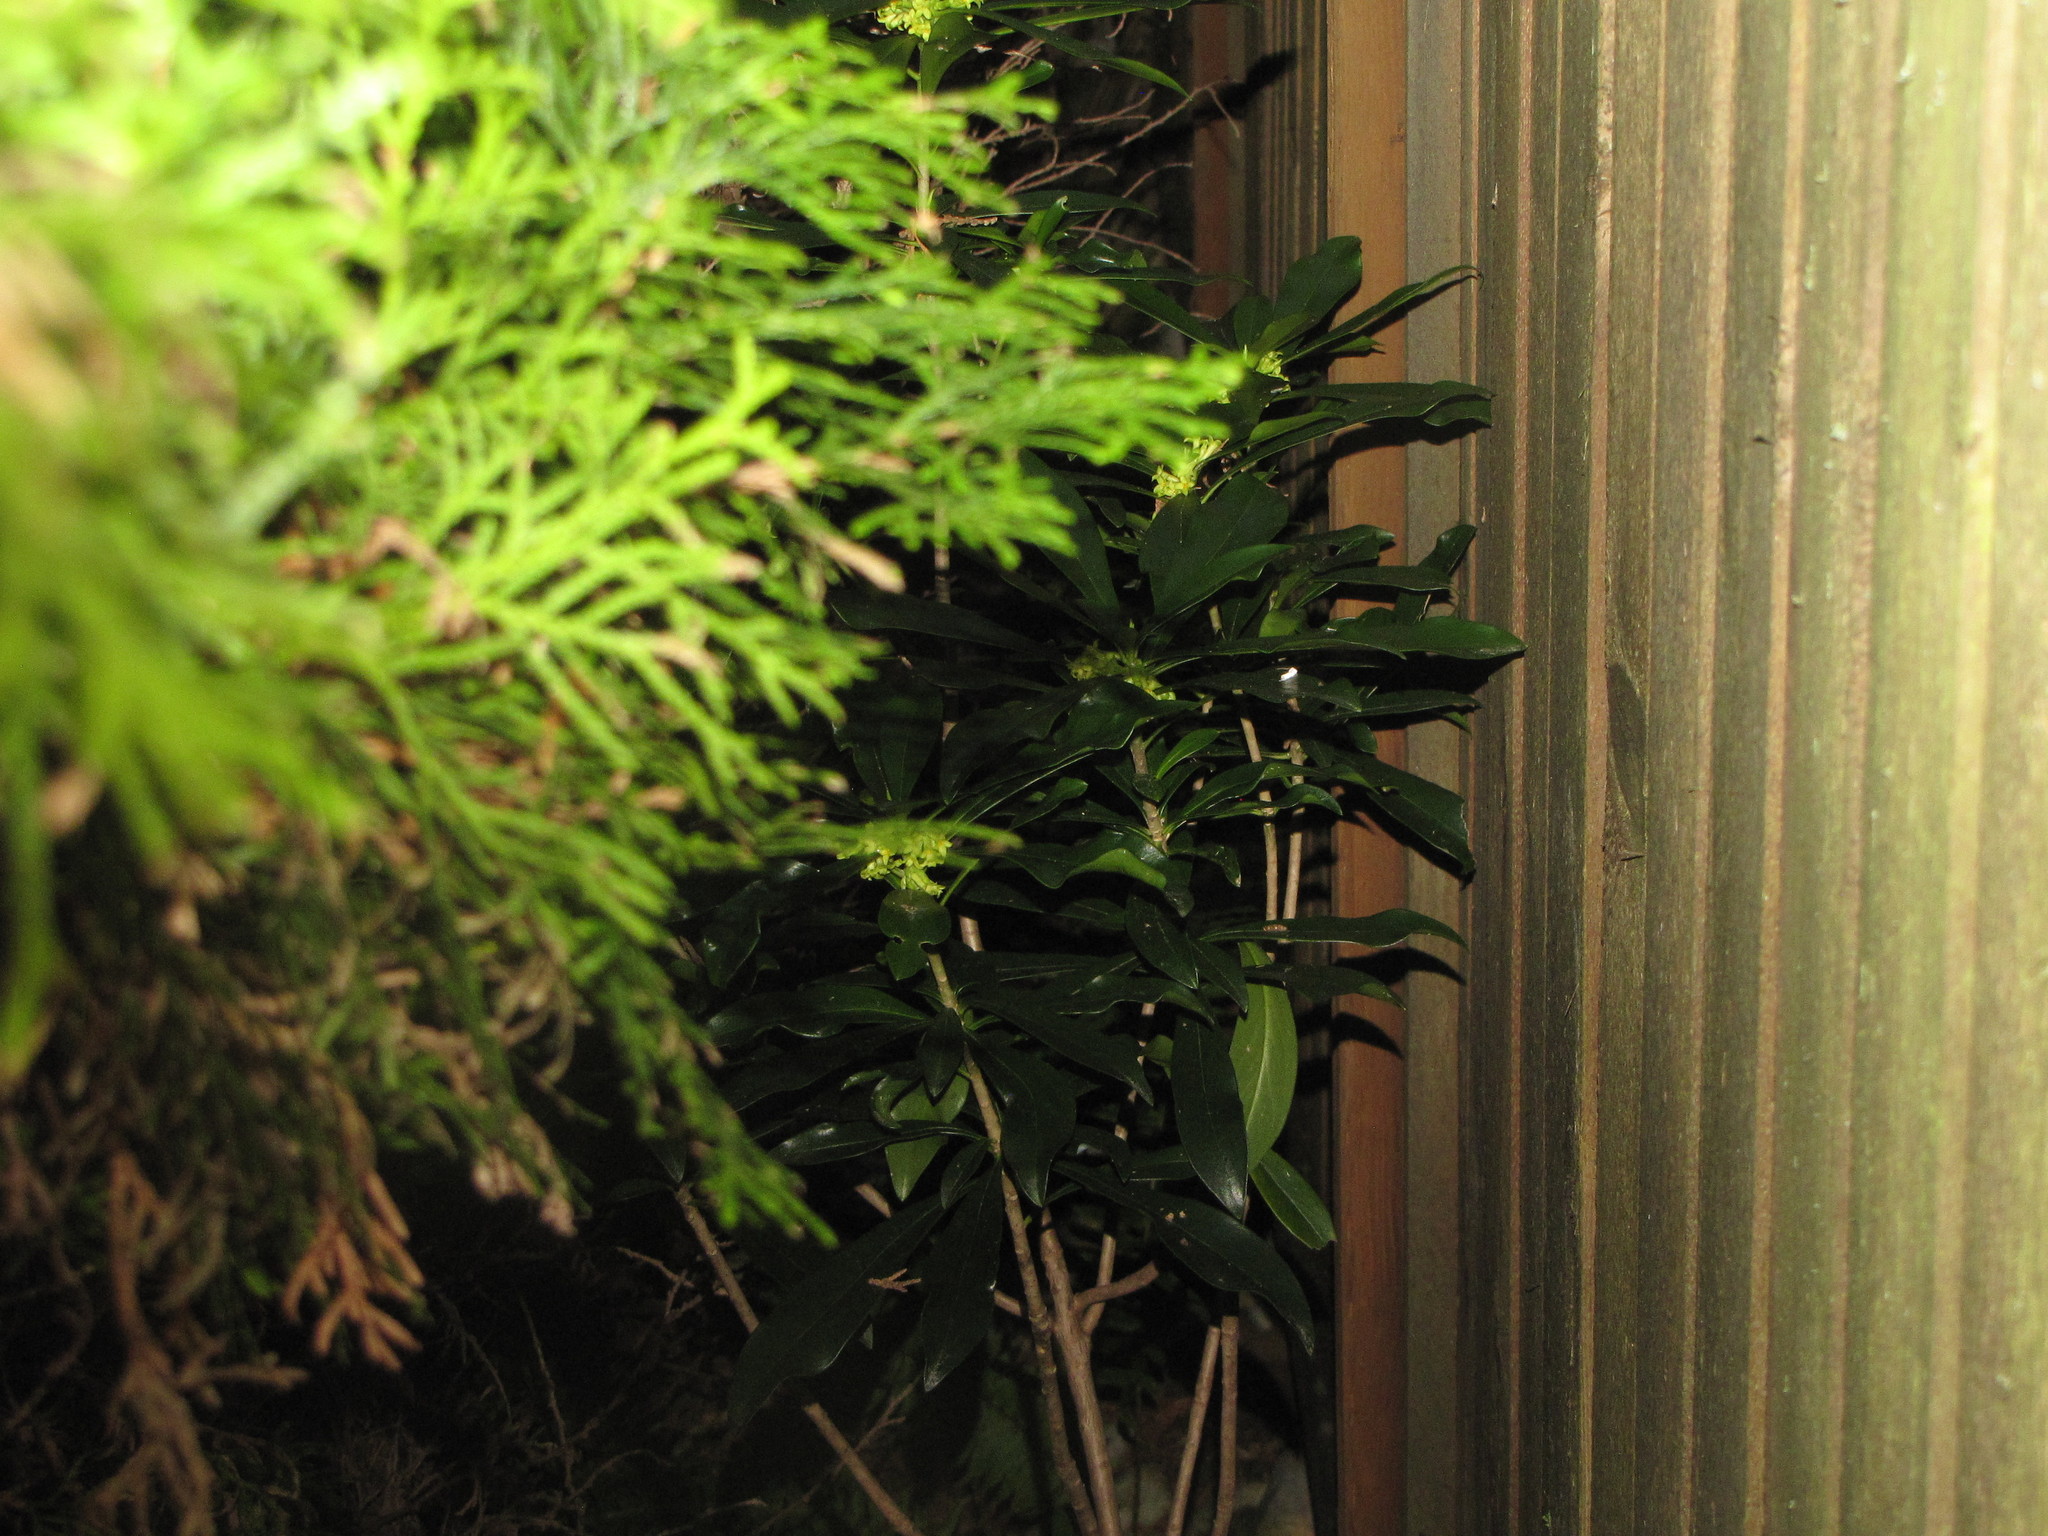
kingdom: Plantae
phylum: Tracheophyta
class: Magnoliopsida
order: Malvales
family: Thymelaeaceae
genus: Daphne
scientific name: Daphne laureola
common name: Spurge-laurel
